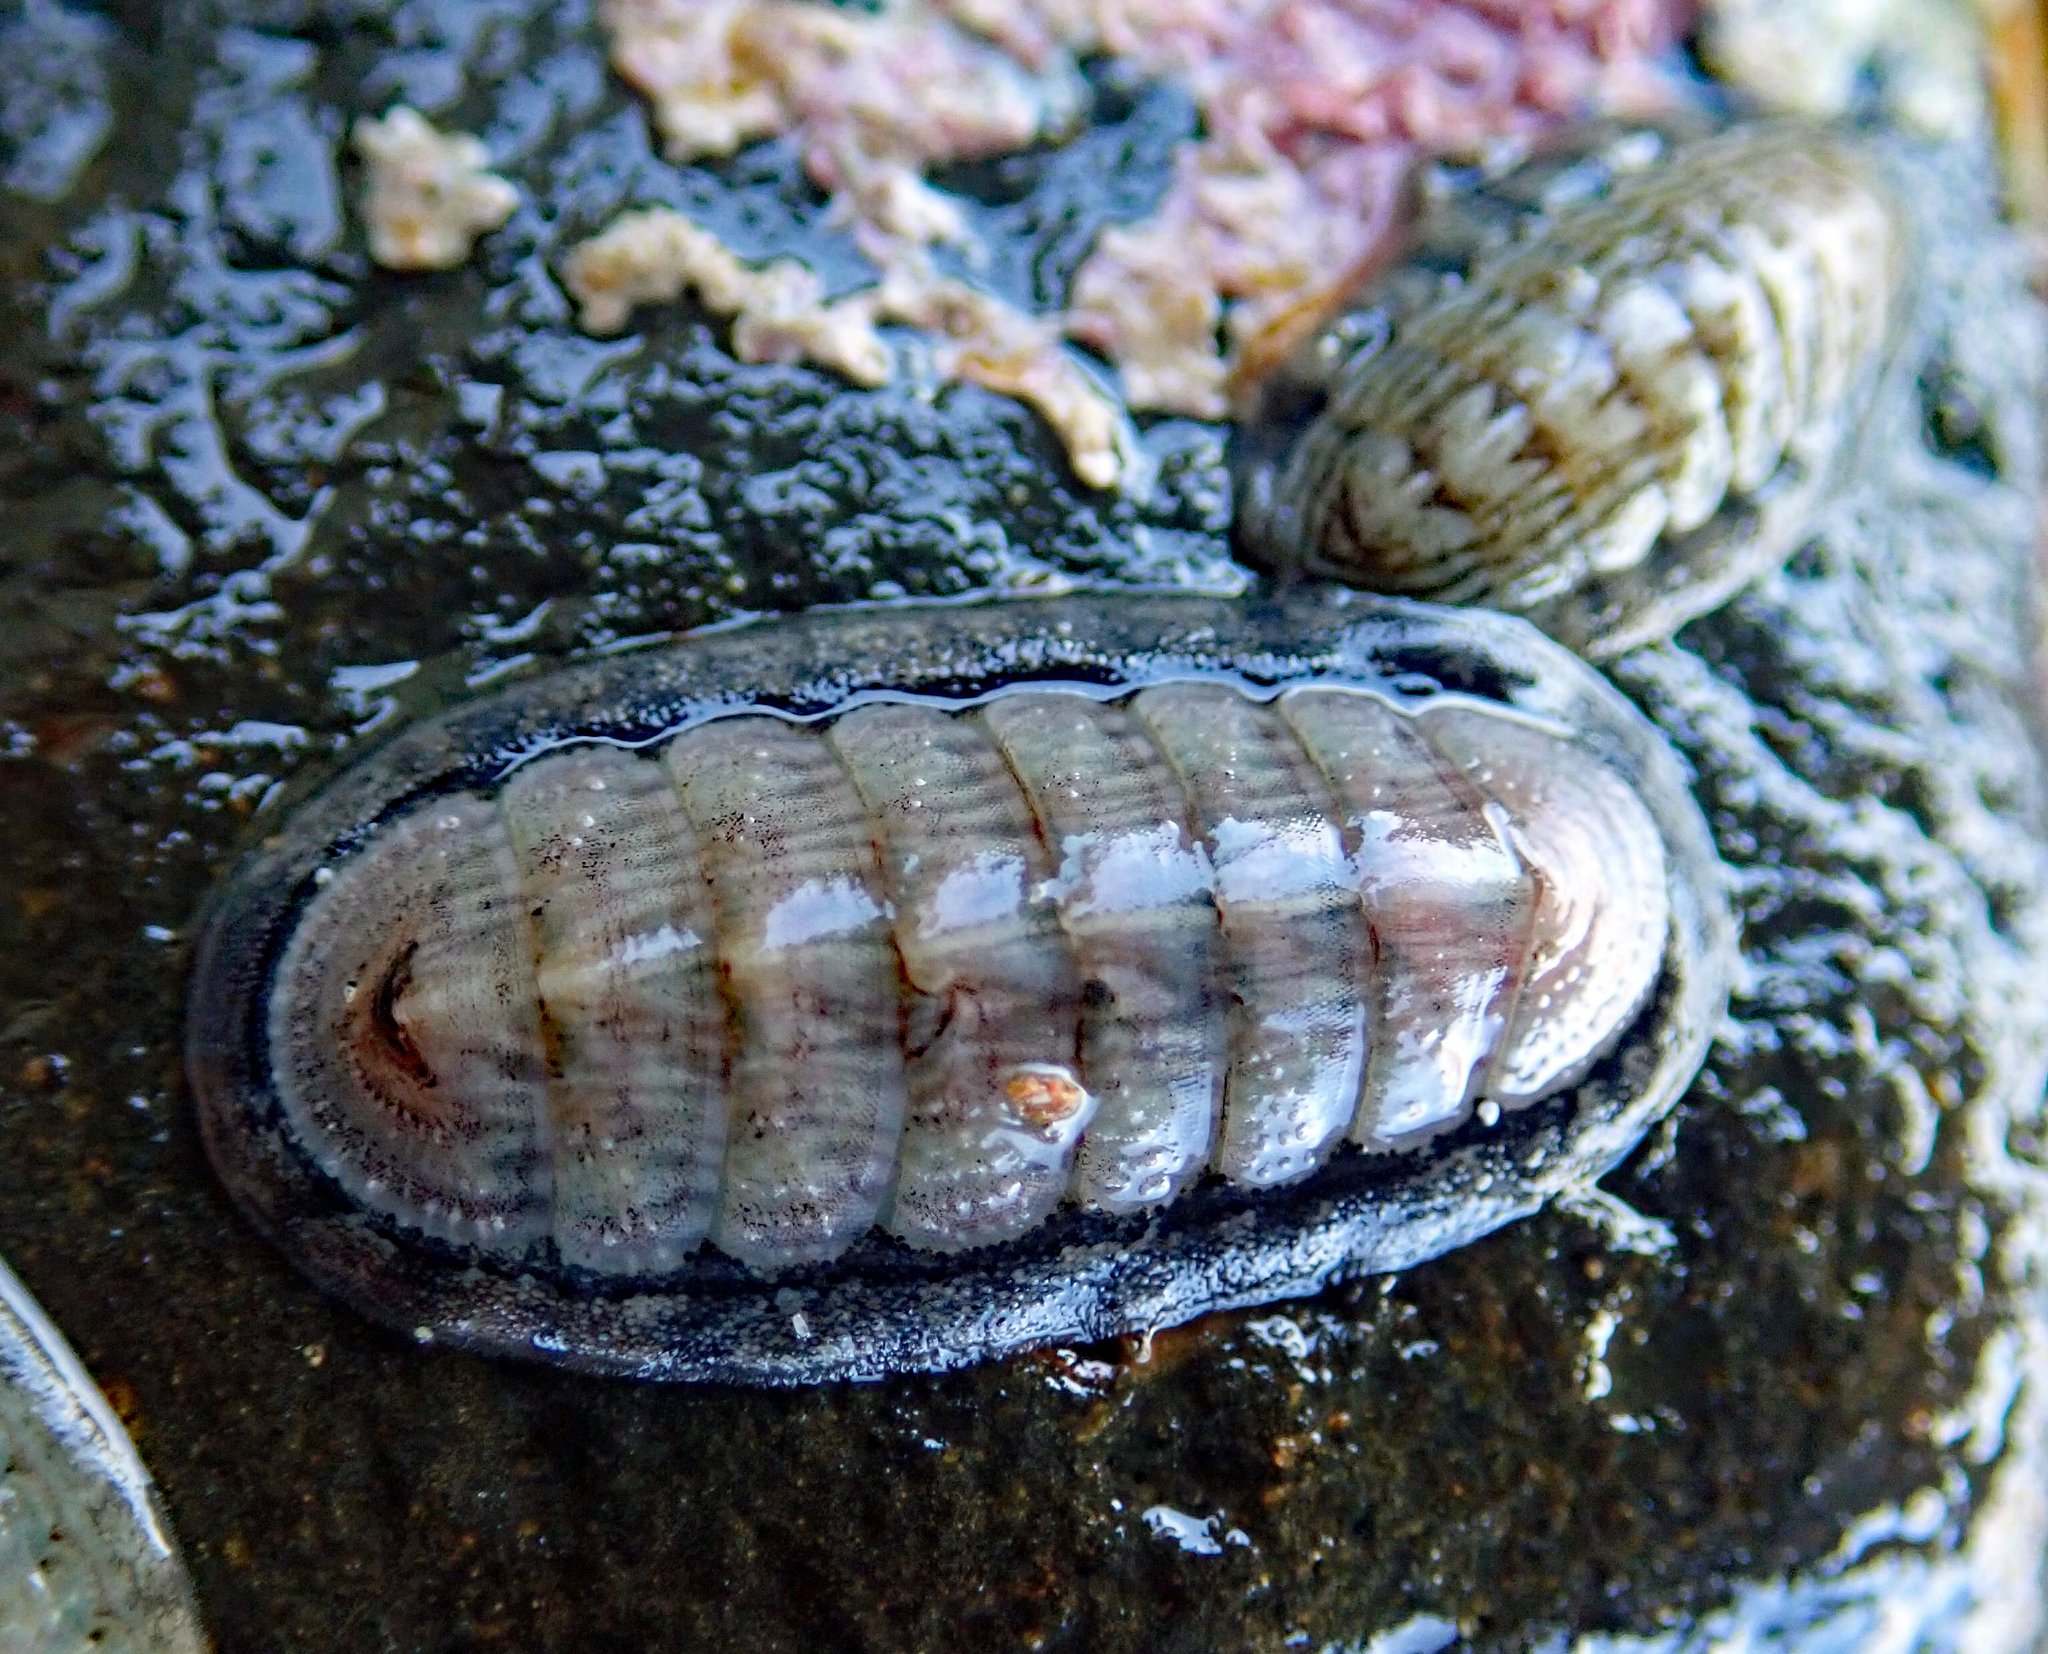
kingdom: Animalia
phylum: Mollusca
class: Polyplacophora
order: Chitonida
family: Ischnochitonidae
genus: Ischnochiton
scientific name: Ischnochiton maorianus
